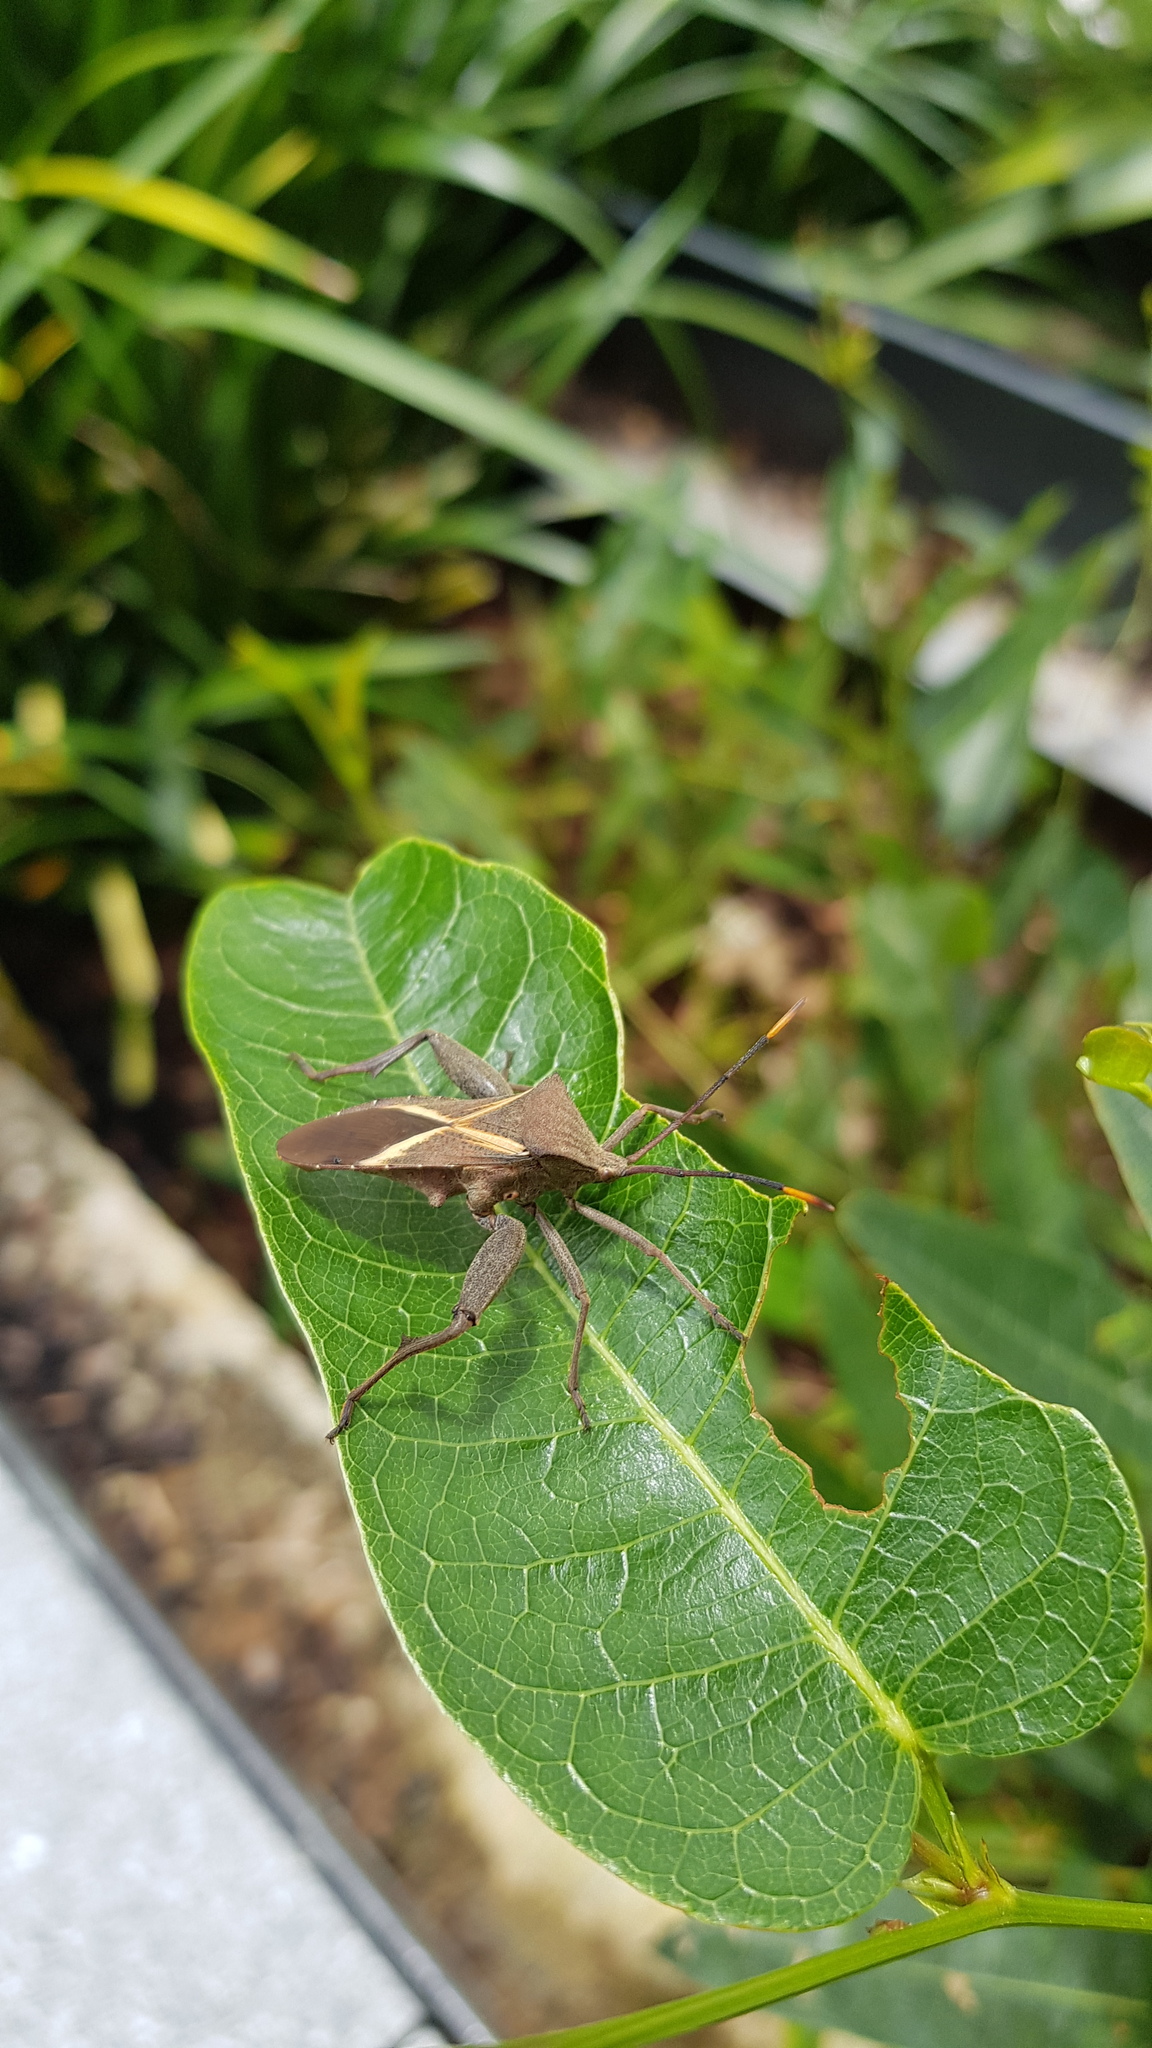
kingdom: Animalia
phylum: Arthropoda
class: Insecta
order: Hemiptera
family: Coreidae
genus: Mictis
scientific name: Mictis profana
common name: Crusader bug
